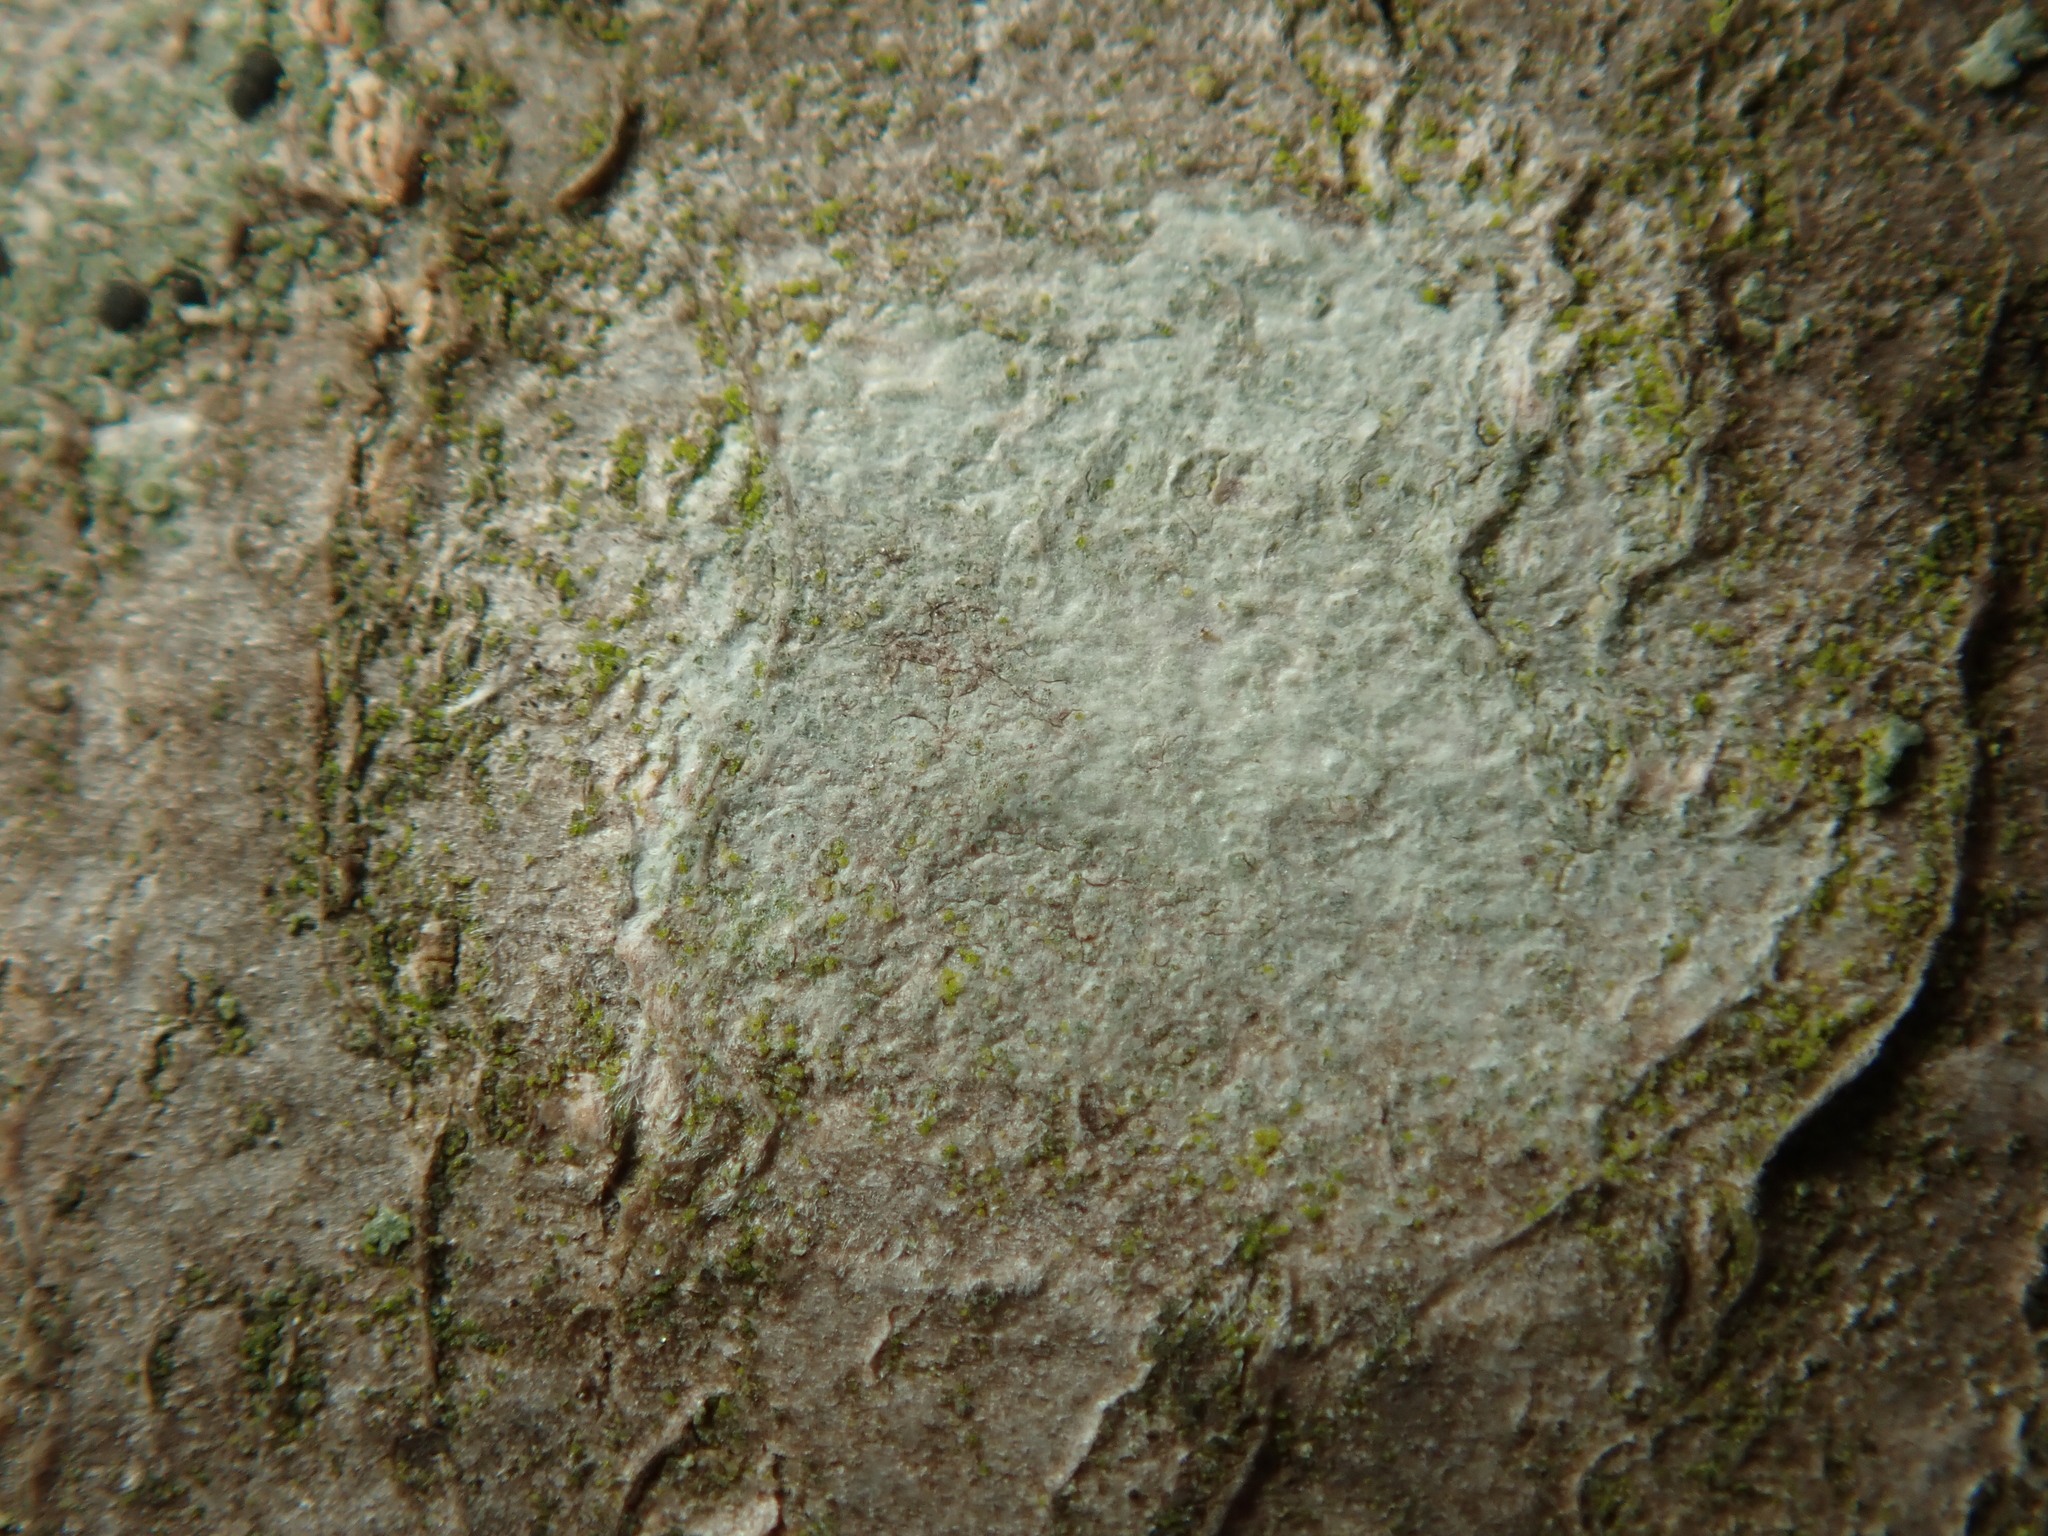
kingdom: Fungi
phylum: Ascomycota
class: Lecanoromycetes
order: Ostropales
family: Phlyctidaceae
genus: Phlyctis
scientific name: Phlyctis argena
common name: Whitewash lichen
